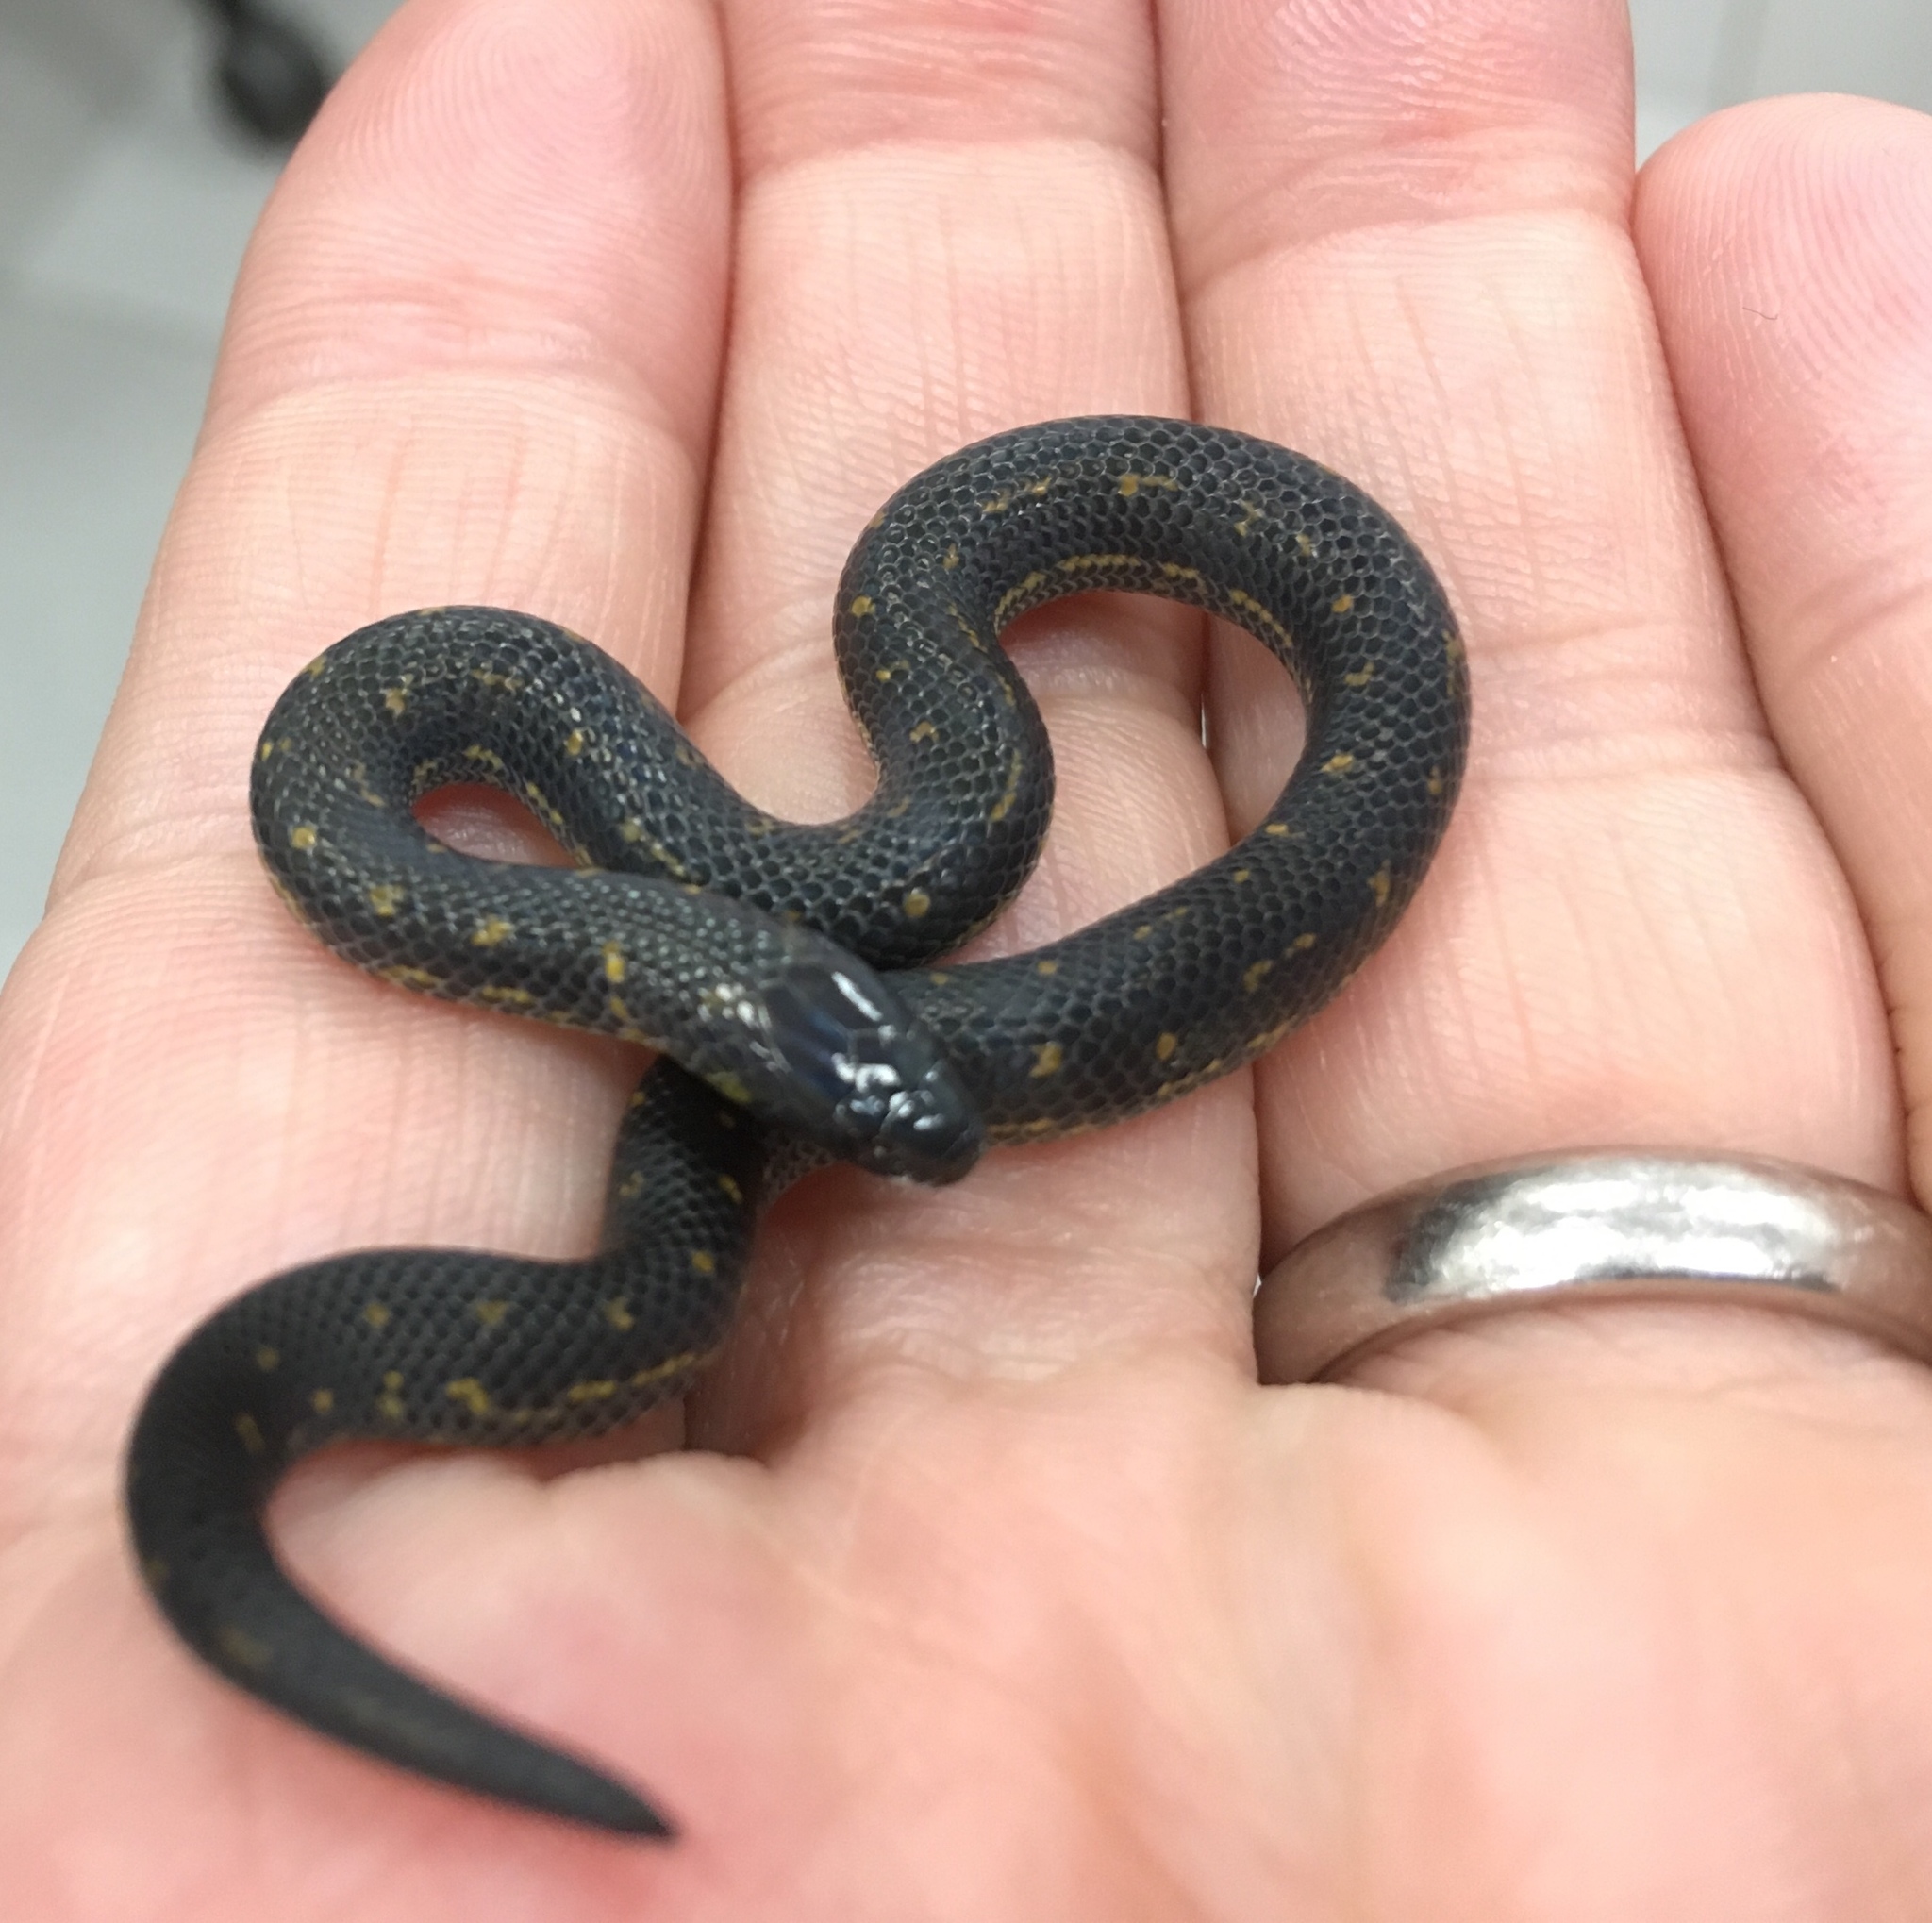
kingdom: Animalia
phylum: Chordata
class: Squamata
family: Colubridae
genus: Atractus
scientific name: Atractus crassicaudatus
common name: Thickhead ground snake
